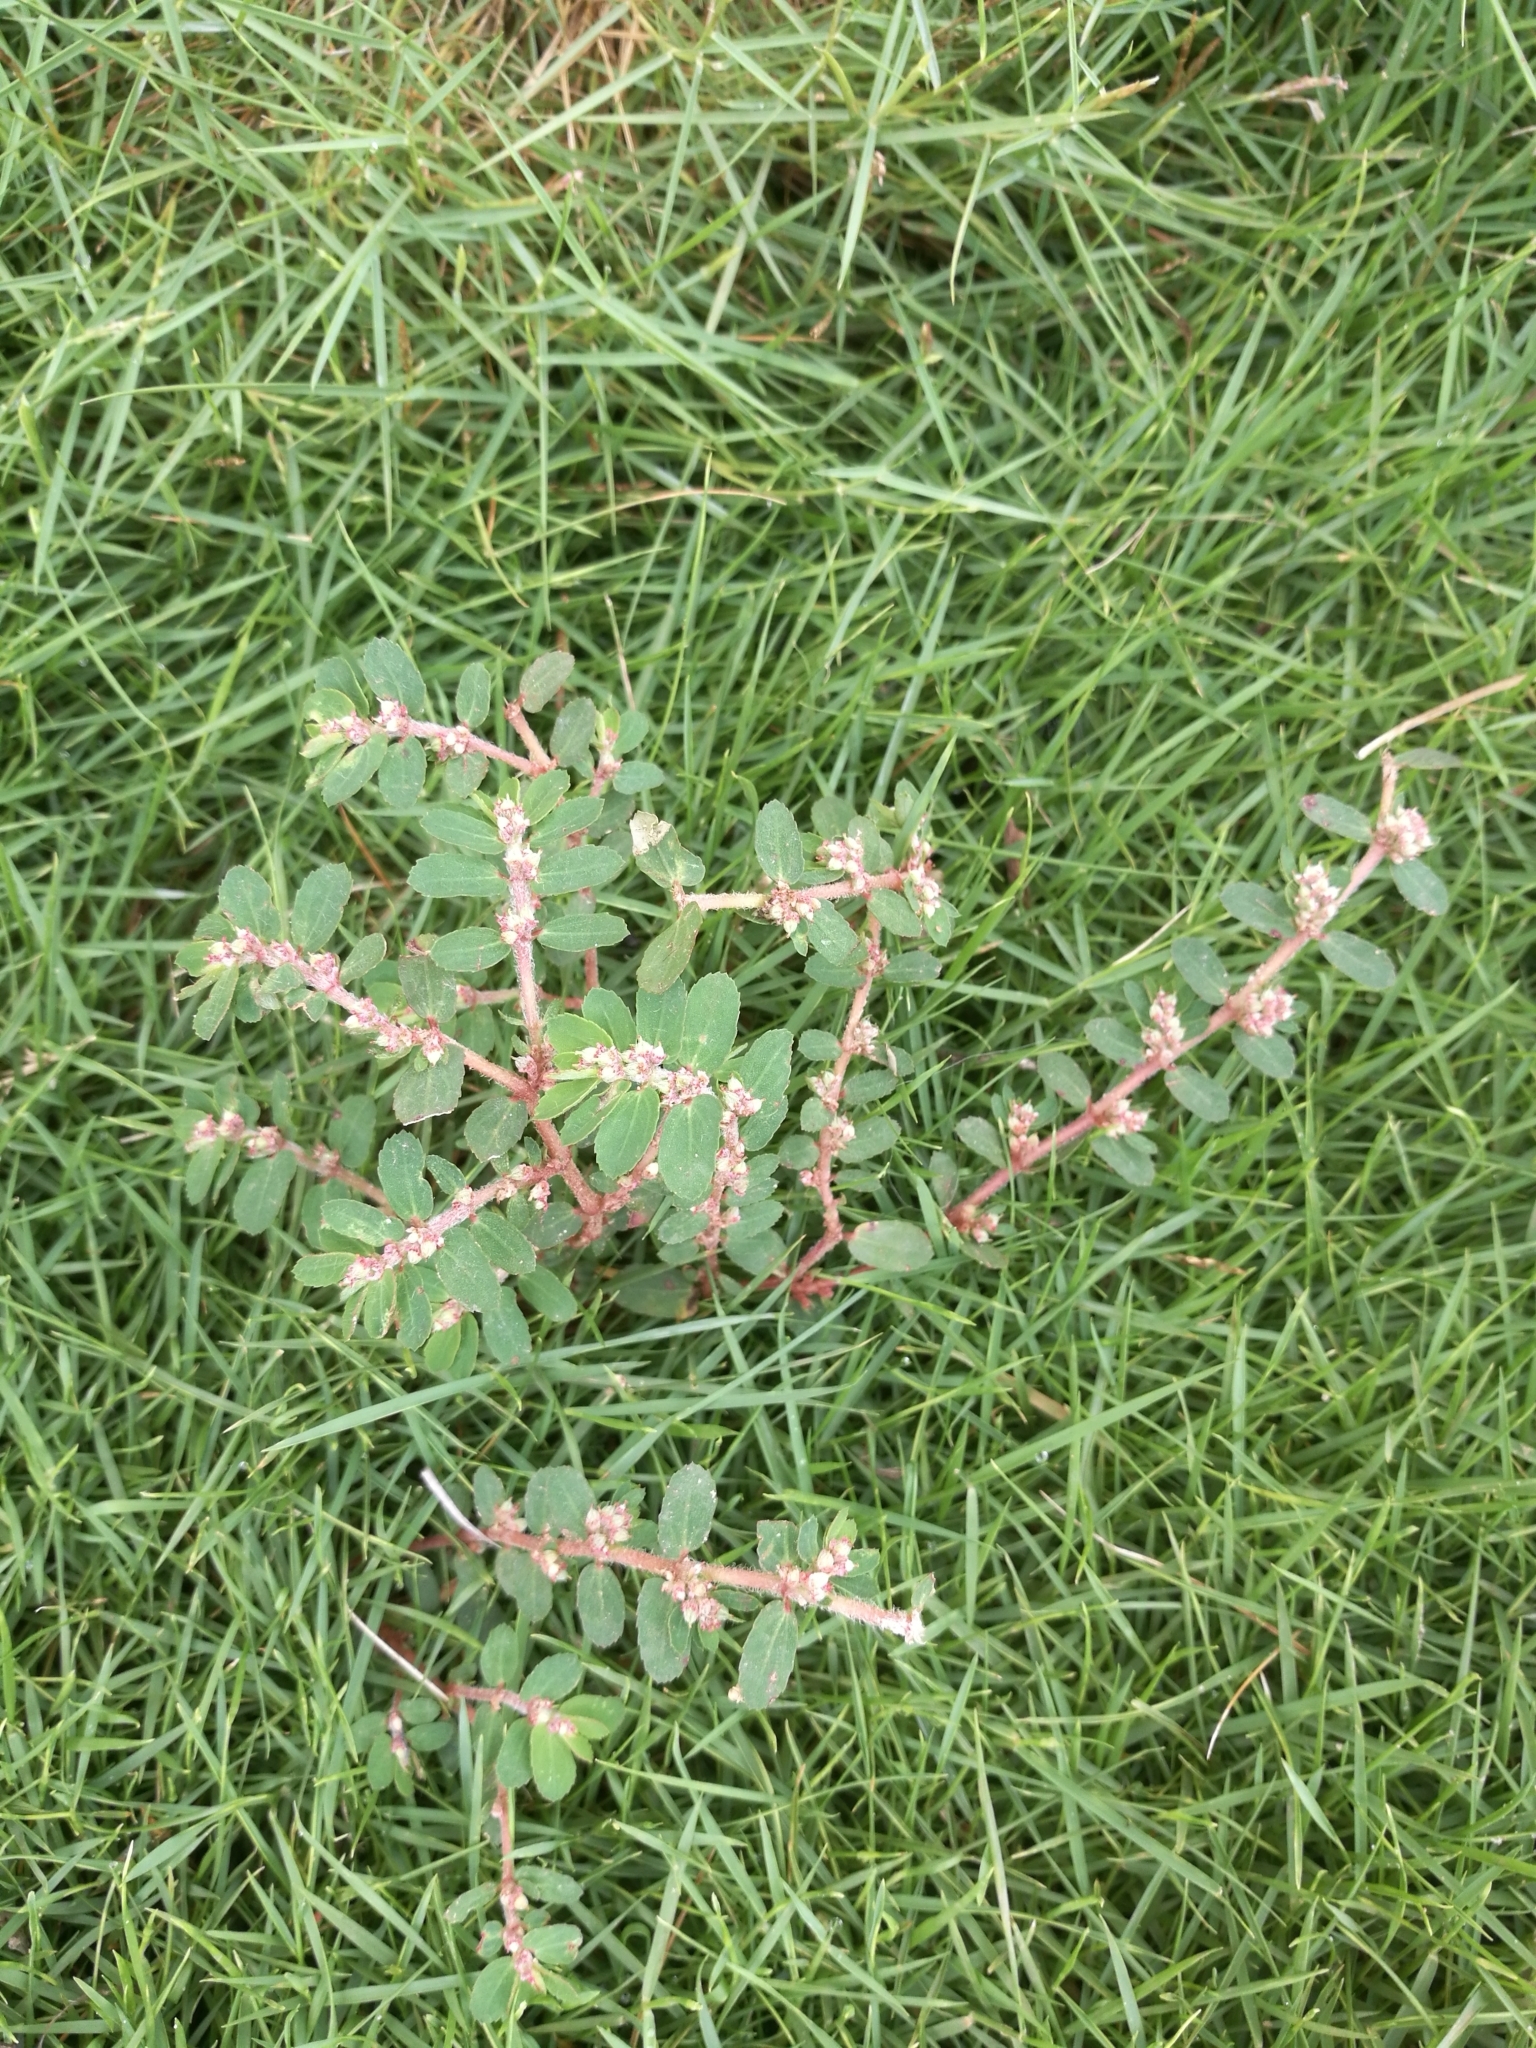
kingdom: Plantae
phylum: Tracheophyta
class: Magnoliopsida
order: Malpighiales
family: Euphorbiaceae
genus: Euphorbia
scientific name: Euphorbia thymifolia
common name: Gulf sandmat
